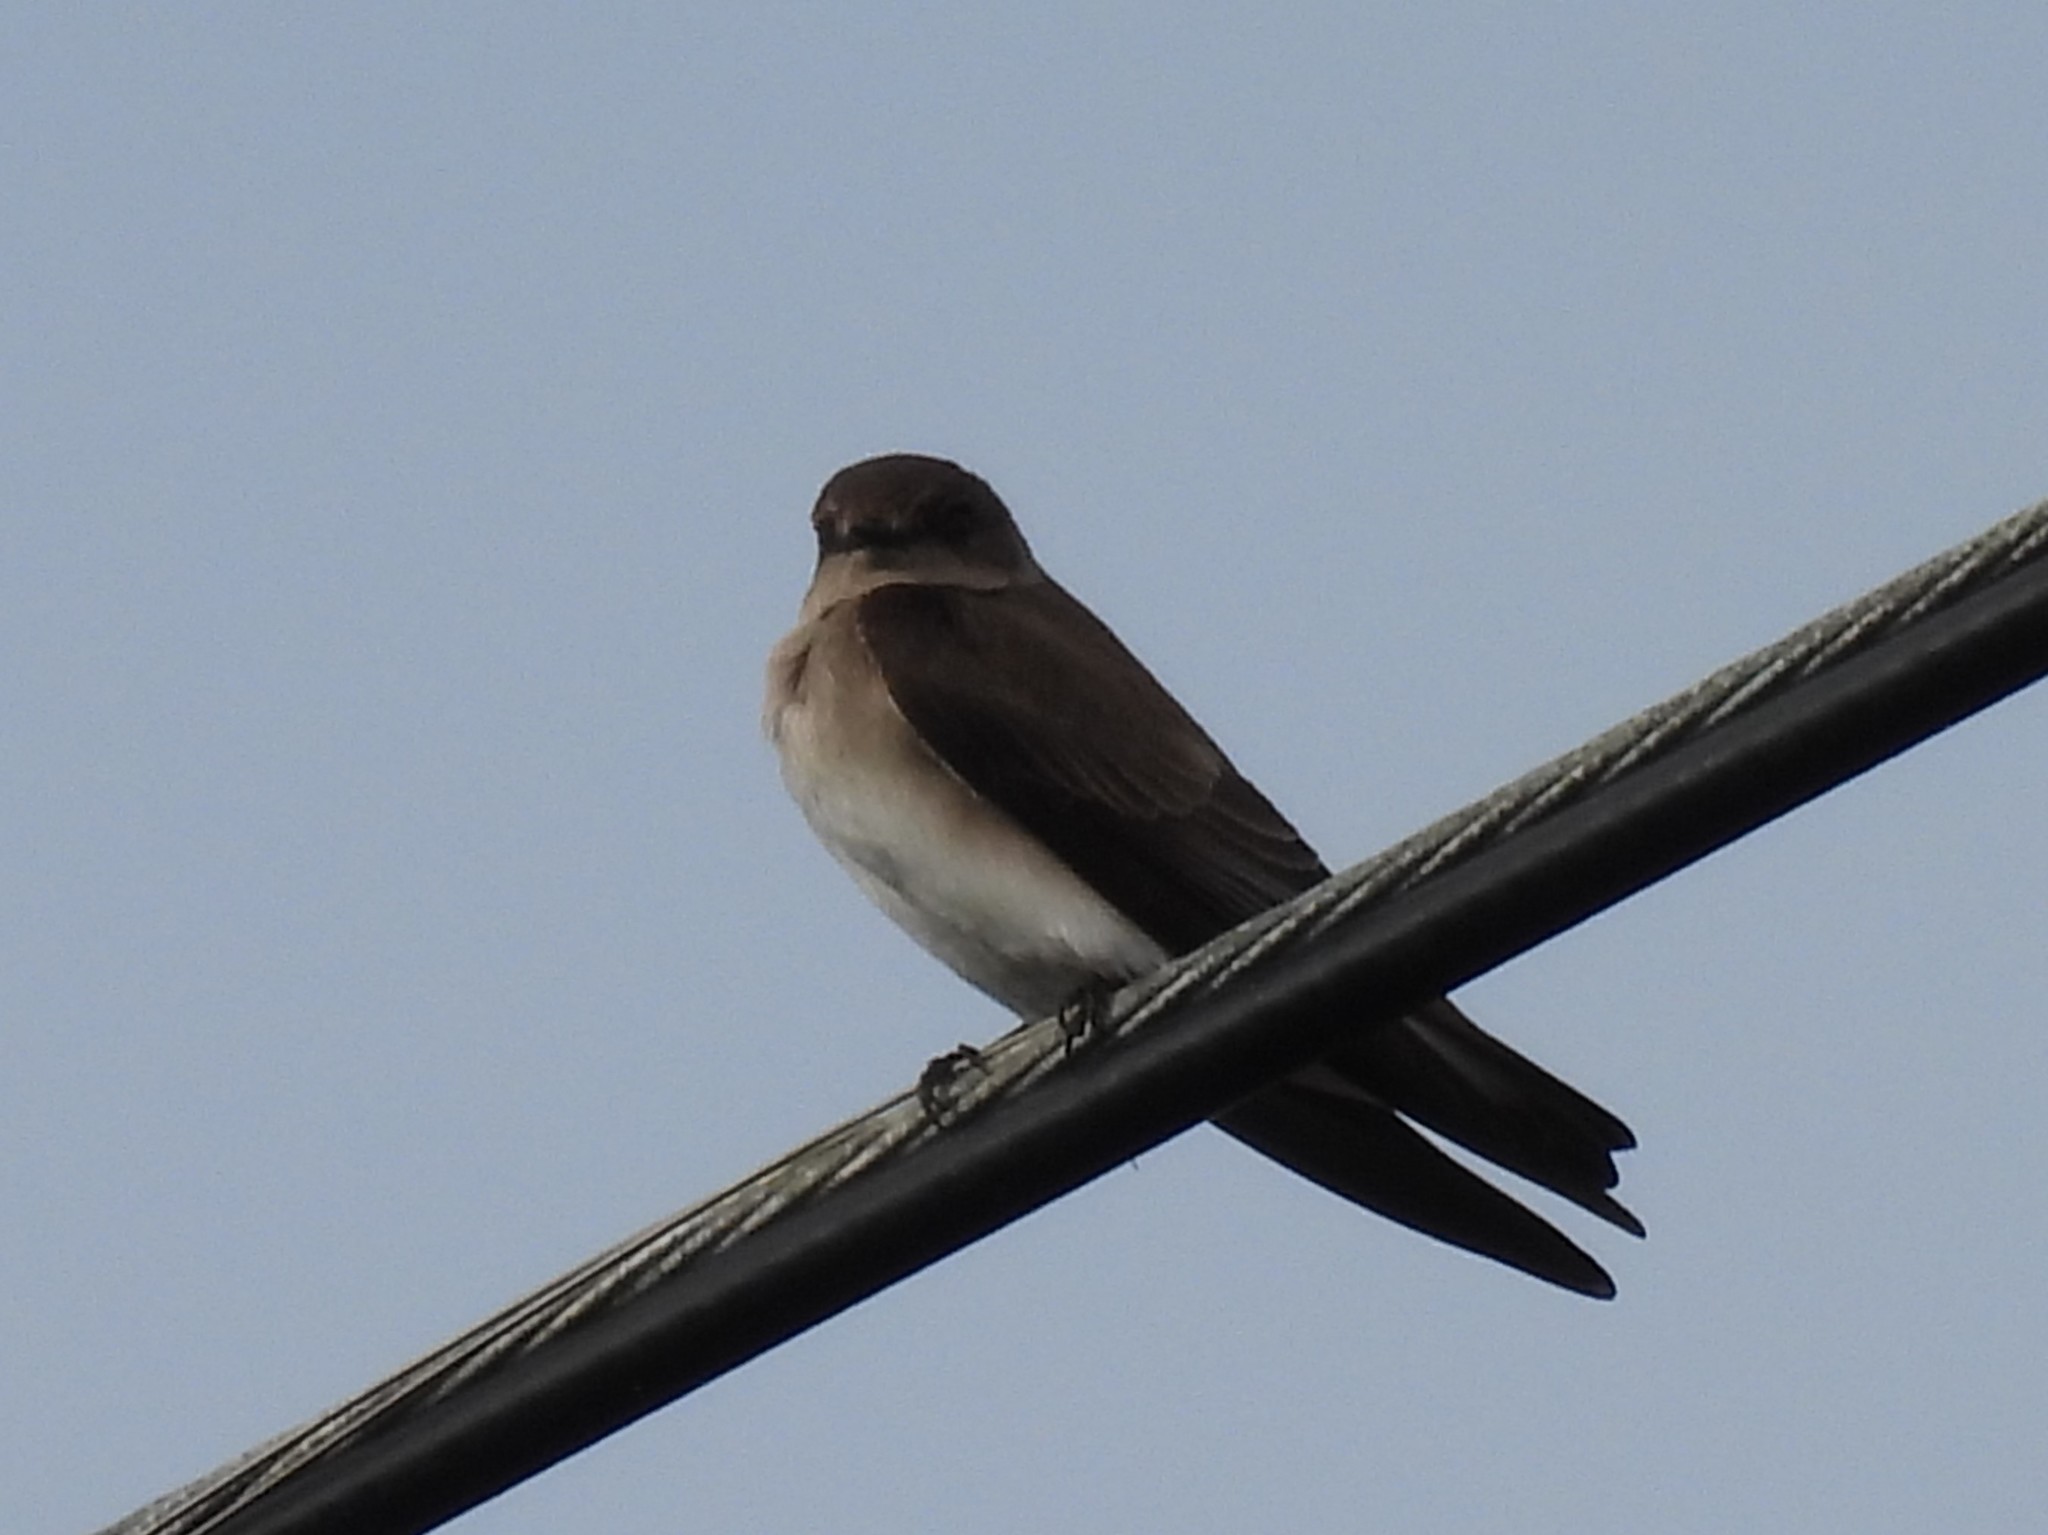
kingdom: Animalia
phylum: Chordata
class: Aves
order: Passeriformes
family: Hirundinidae
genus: Stelgidopteryx
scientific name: Stelgidopteryx serripennis
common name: Northern rough-winged swallow
